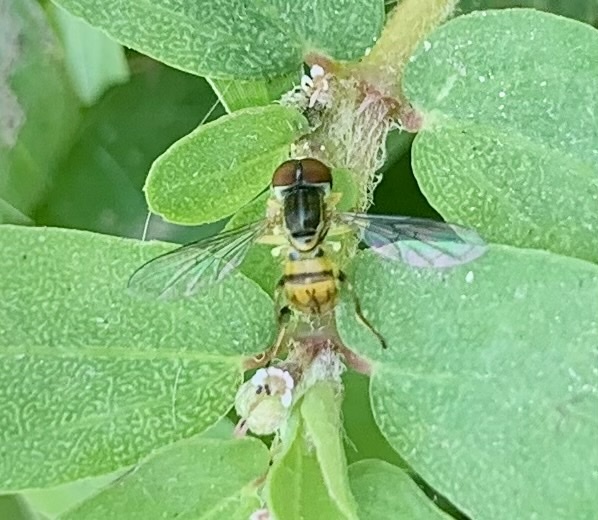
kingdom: Animalia
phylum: Arthropoda
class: Insecta
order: Diptera
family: Syrphidae
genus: Toxomerus
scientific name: Toxomerus boscii
